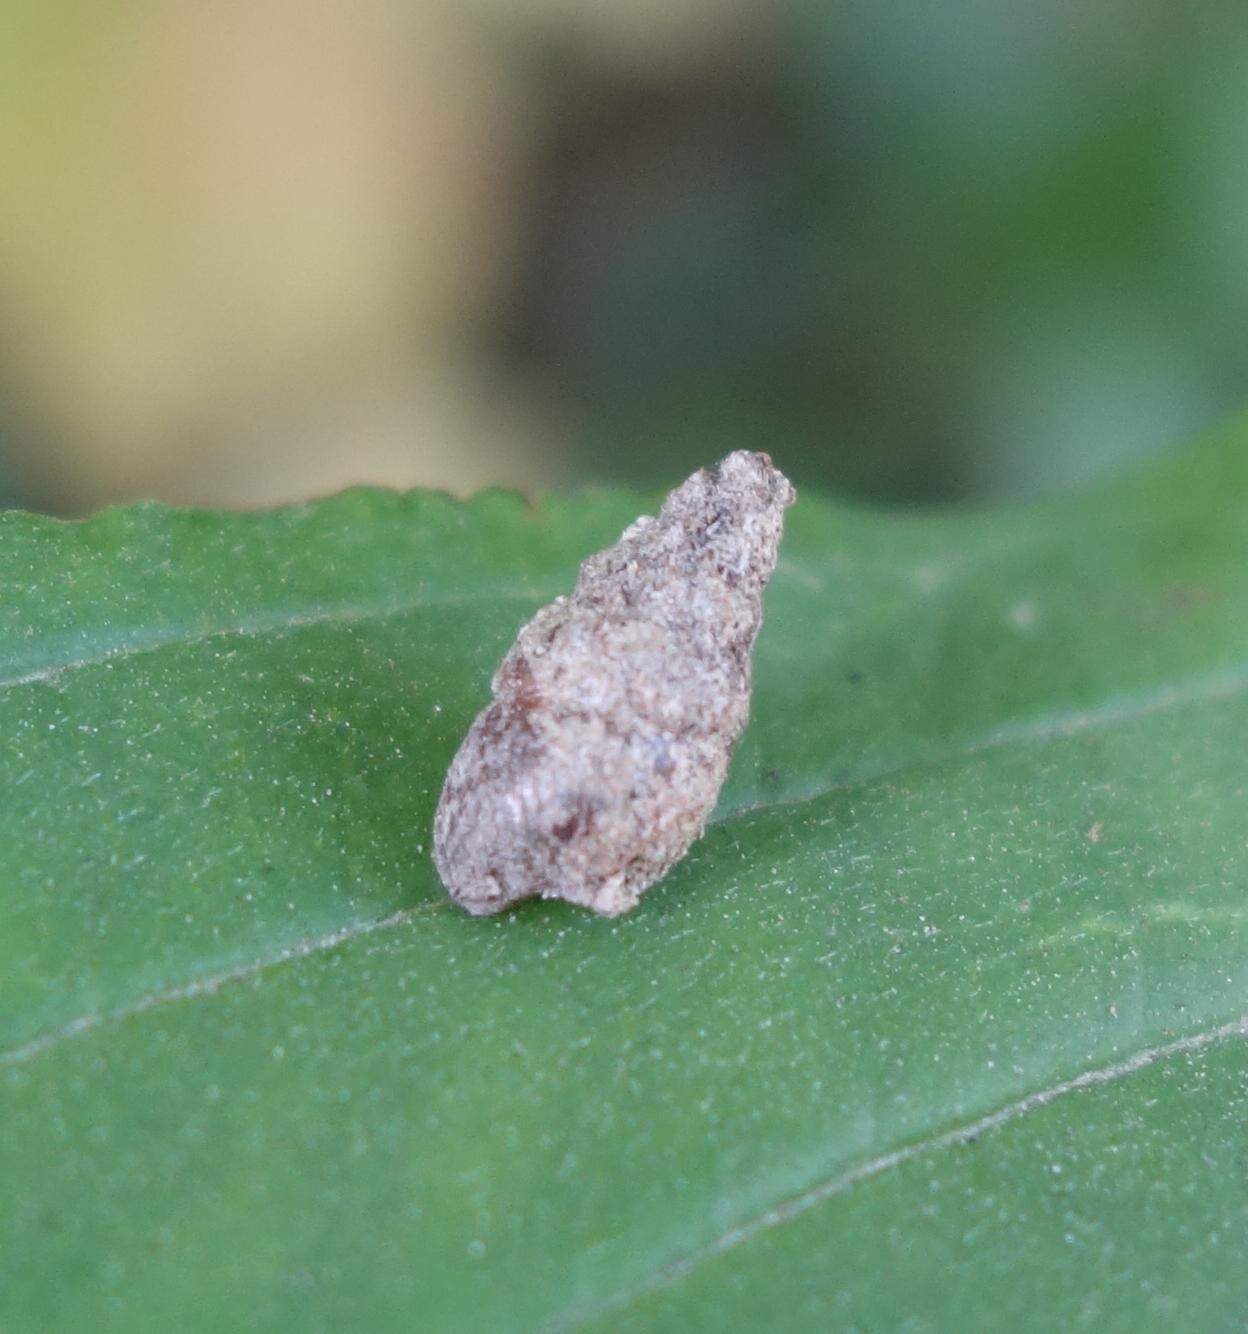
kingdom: Animalia
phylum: Mollusca
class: Gastropoda
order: Stylommatophora
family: Enidae
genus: Merdigera
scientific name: Merdigera obscura
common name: Lesser bulin
